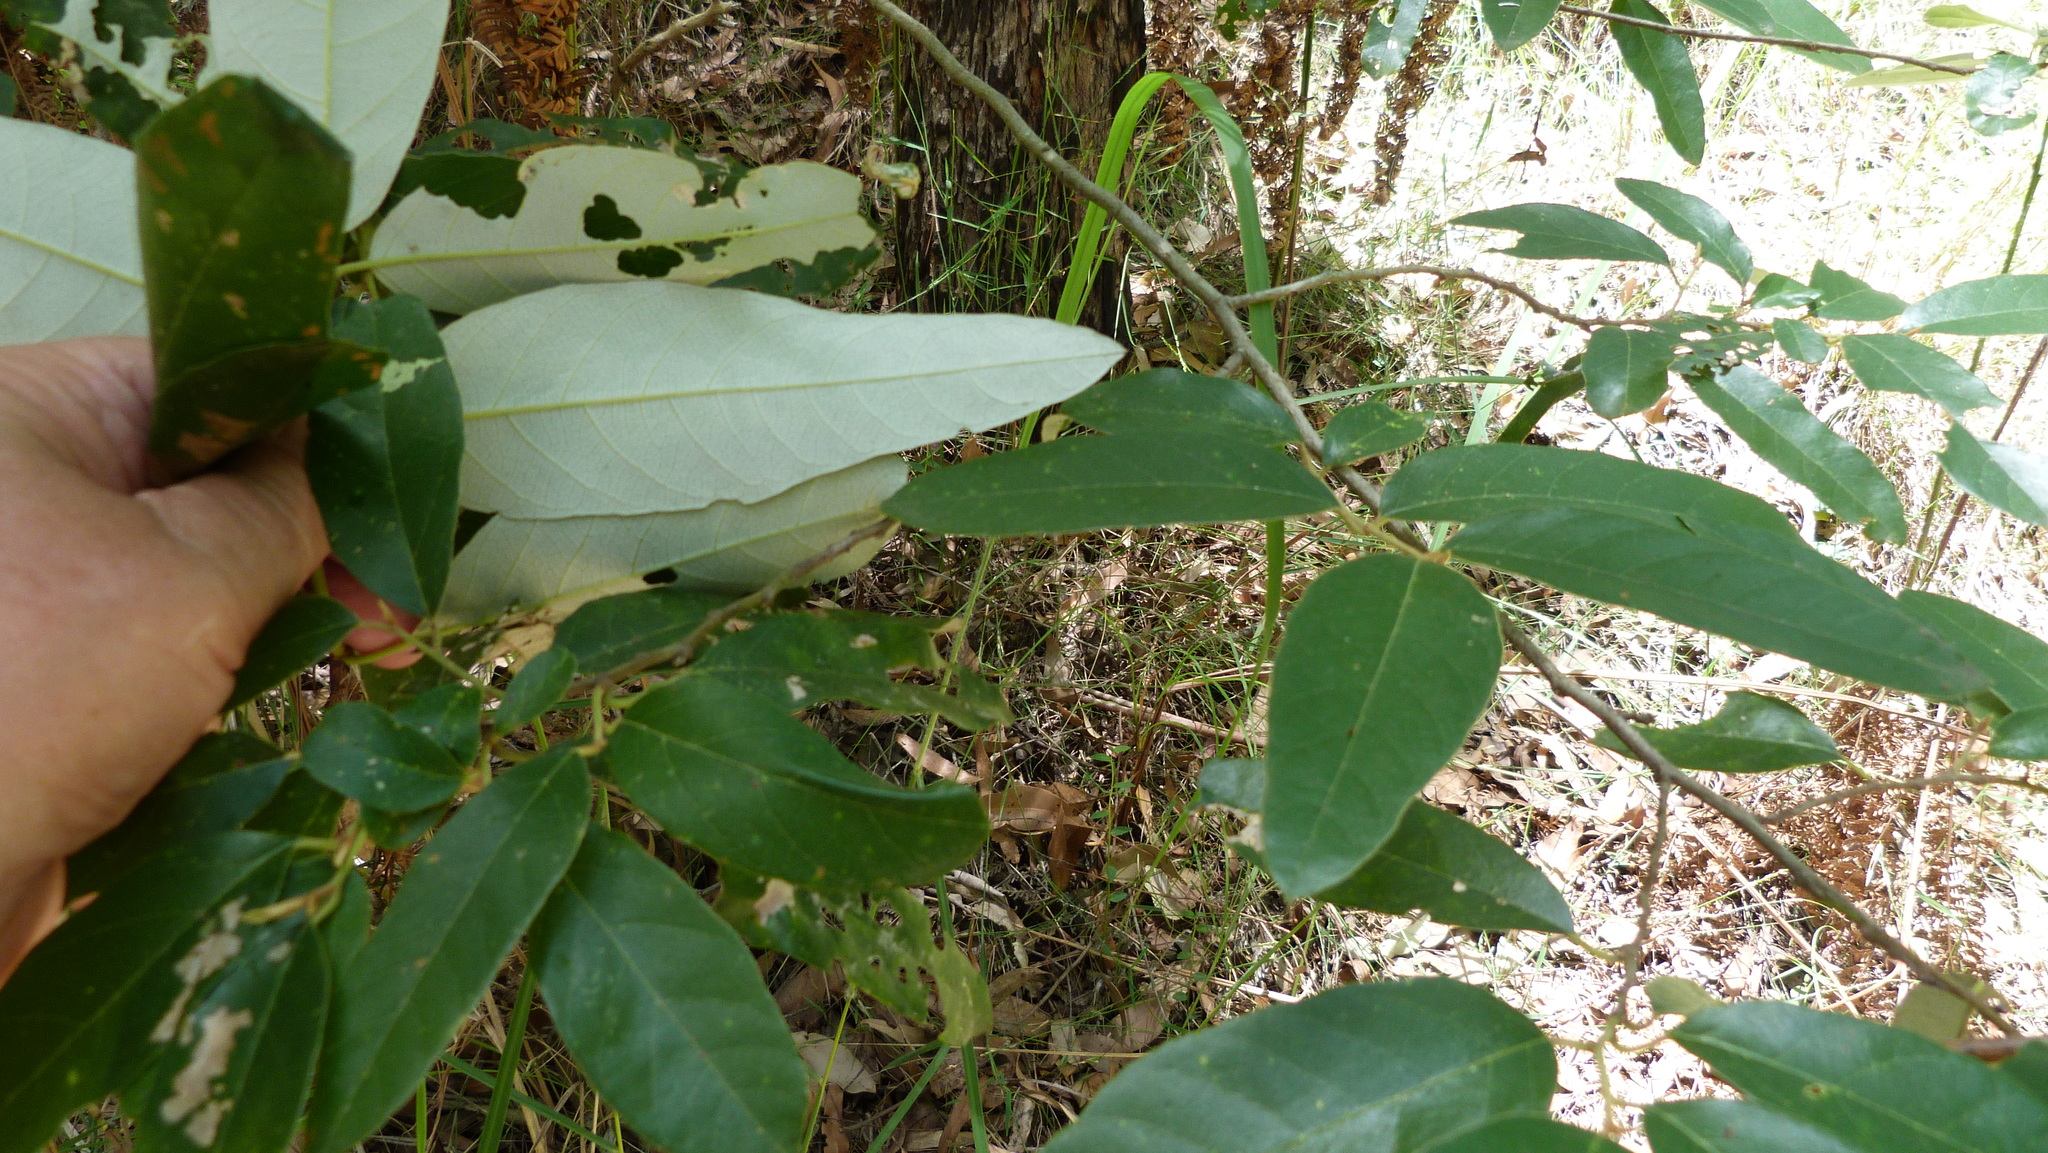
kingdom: Plantae
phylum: Tracheophyta
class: Magnoliopsida
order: Rosales
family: Rhamnaceae
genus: Alphitonia
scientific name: Alphitonia excelsa
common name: Red ash
